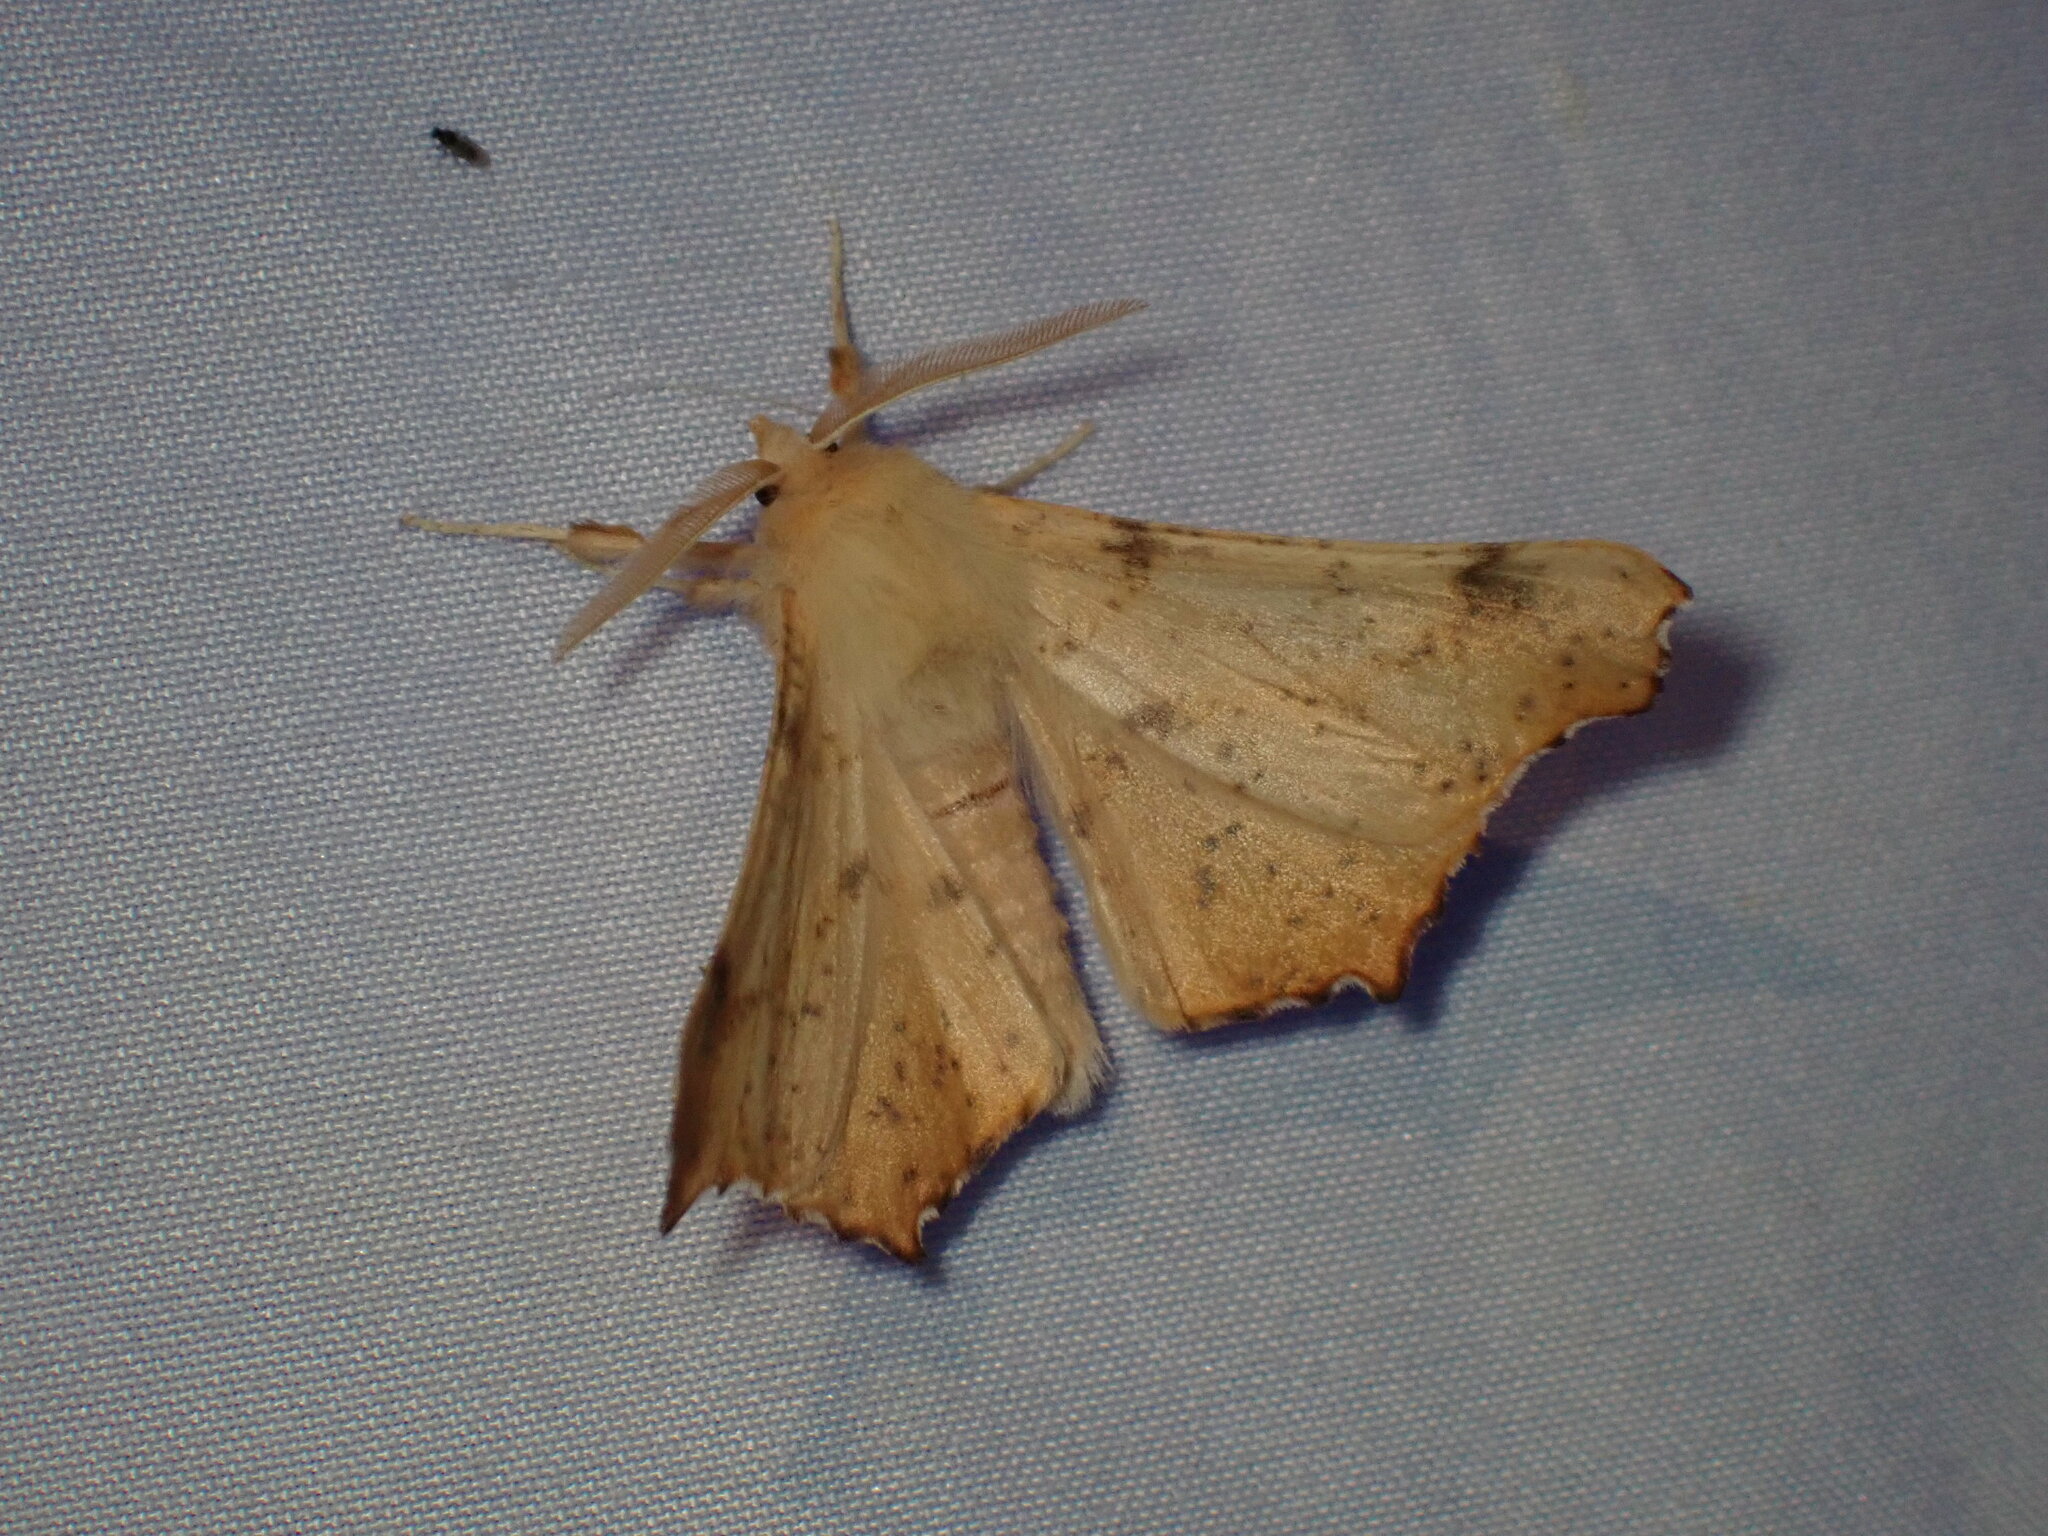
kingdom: Animalia
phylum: Arthropoda
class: Insecta
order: Lepidoptera
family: Geometridae
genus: Ennomos
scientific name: Ennomos magnaria
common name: Maple spanworm
